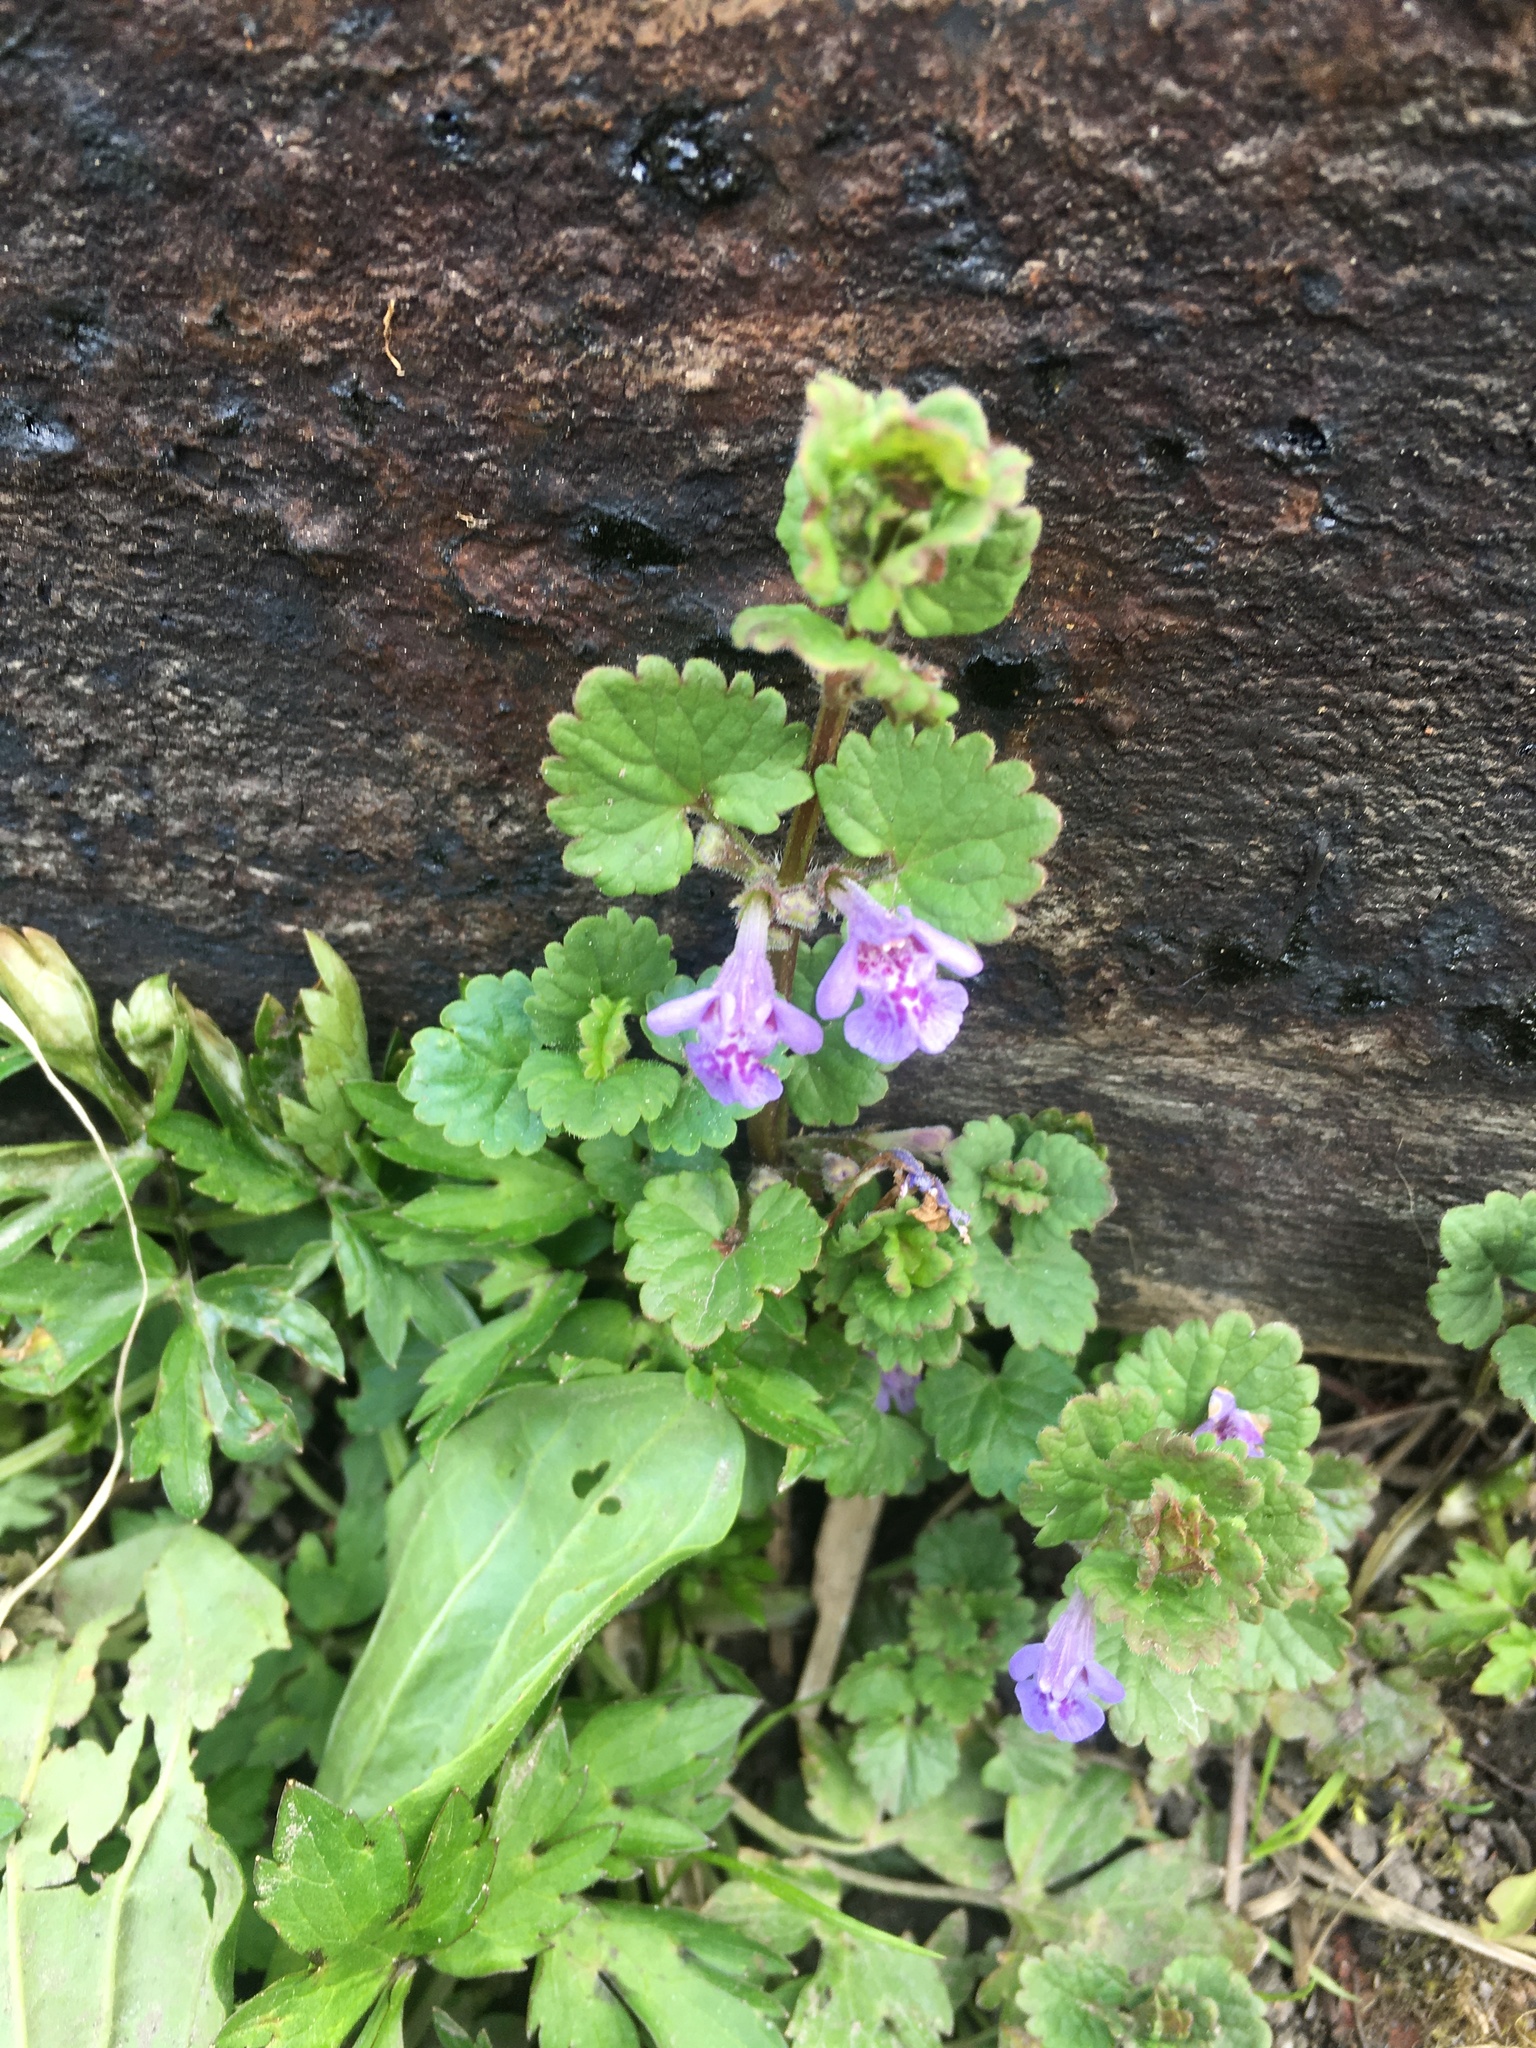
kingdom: Plantae
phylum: Tracheophyta
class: Magnoliopsida
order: Lamiales
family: Lamiaceae
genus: Glechoma
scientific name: Glechoma hederacea
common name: Ground ivy
